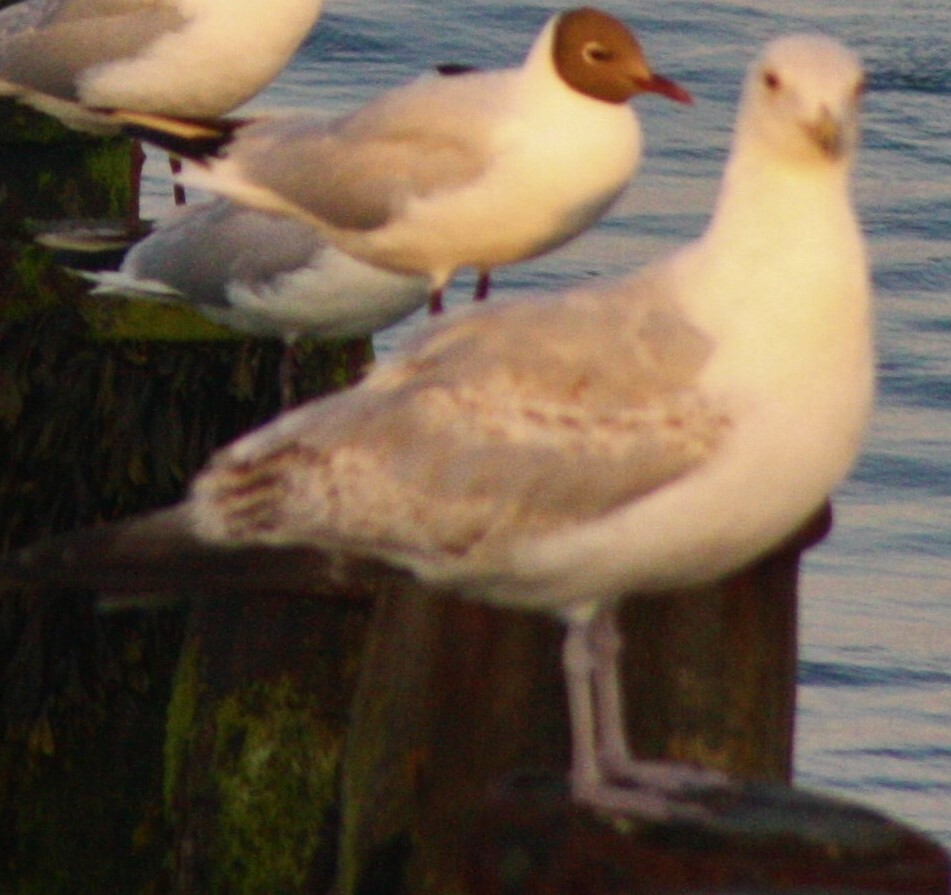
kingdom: Animalia
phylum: Chordata
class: Aves
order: Charadriiformes
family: Laridae
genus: Larus
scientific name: Larus argentatus
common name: Herring gull
